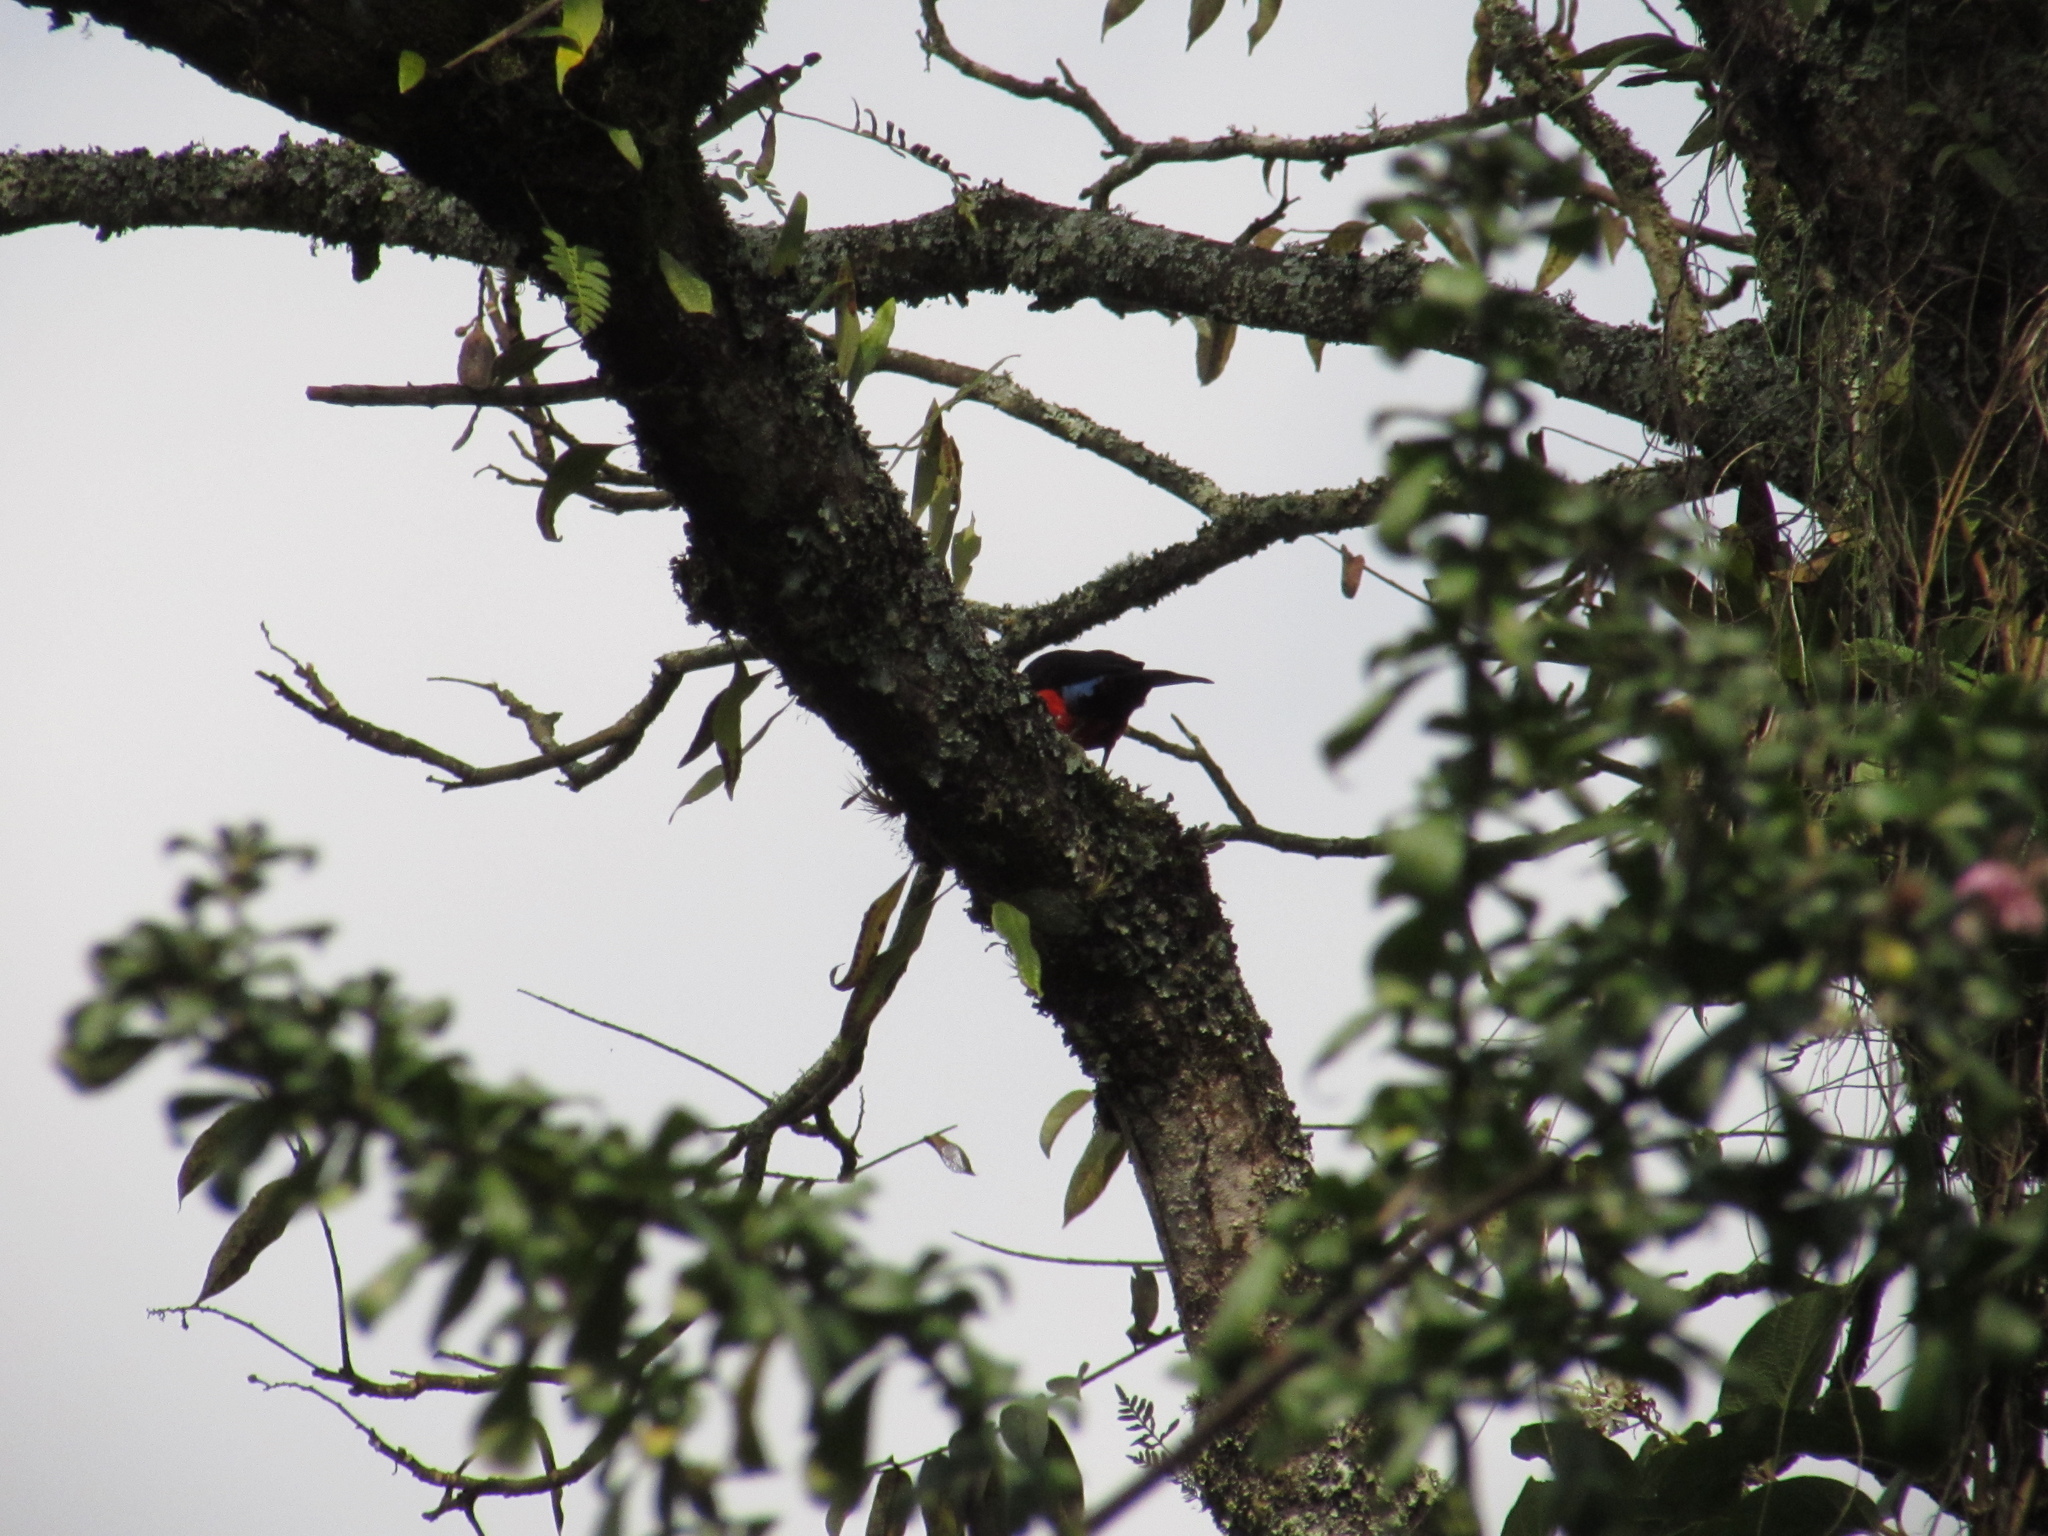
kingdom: Animalia
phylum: Chordata
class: Aves
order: Passeriformes
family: Thraupidae
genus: Anisognathus
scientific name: Anisognathus igniventris
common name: Scarlet-bellied mountain tanager
